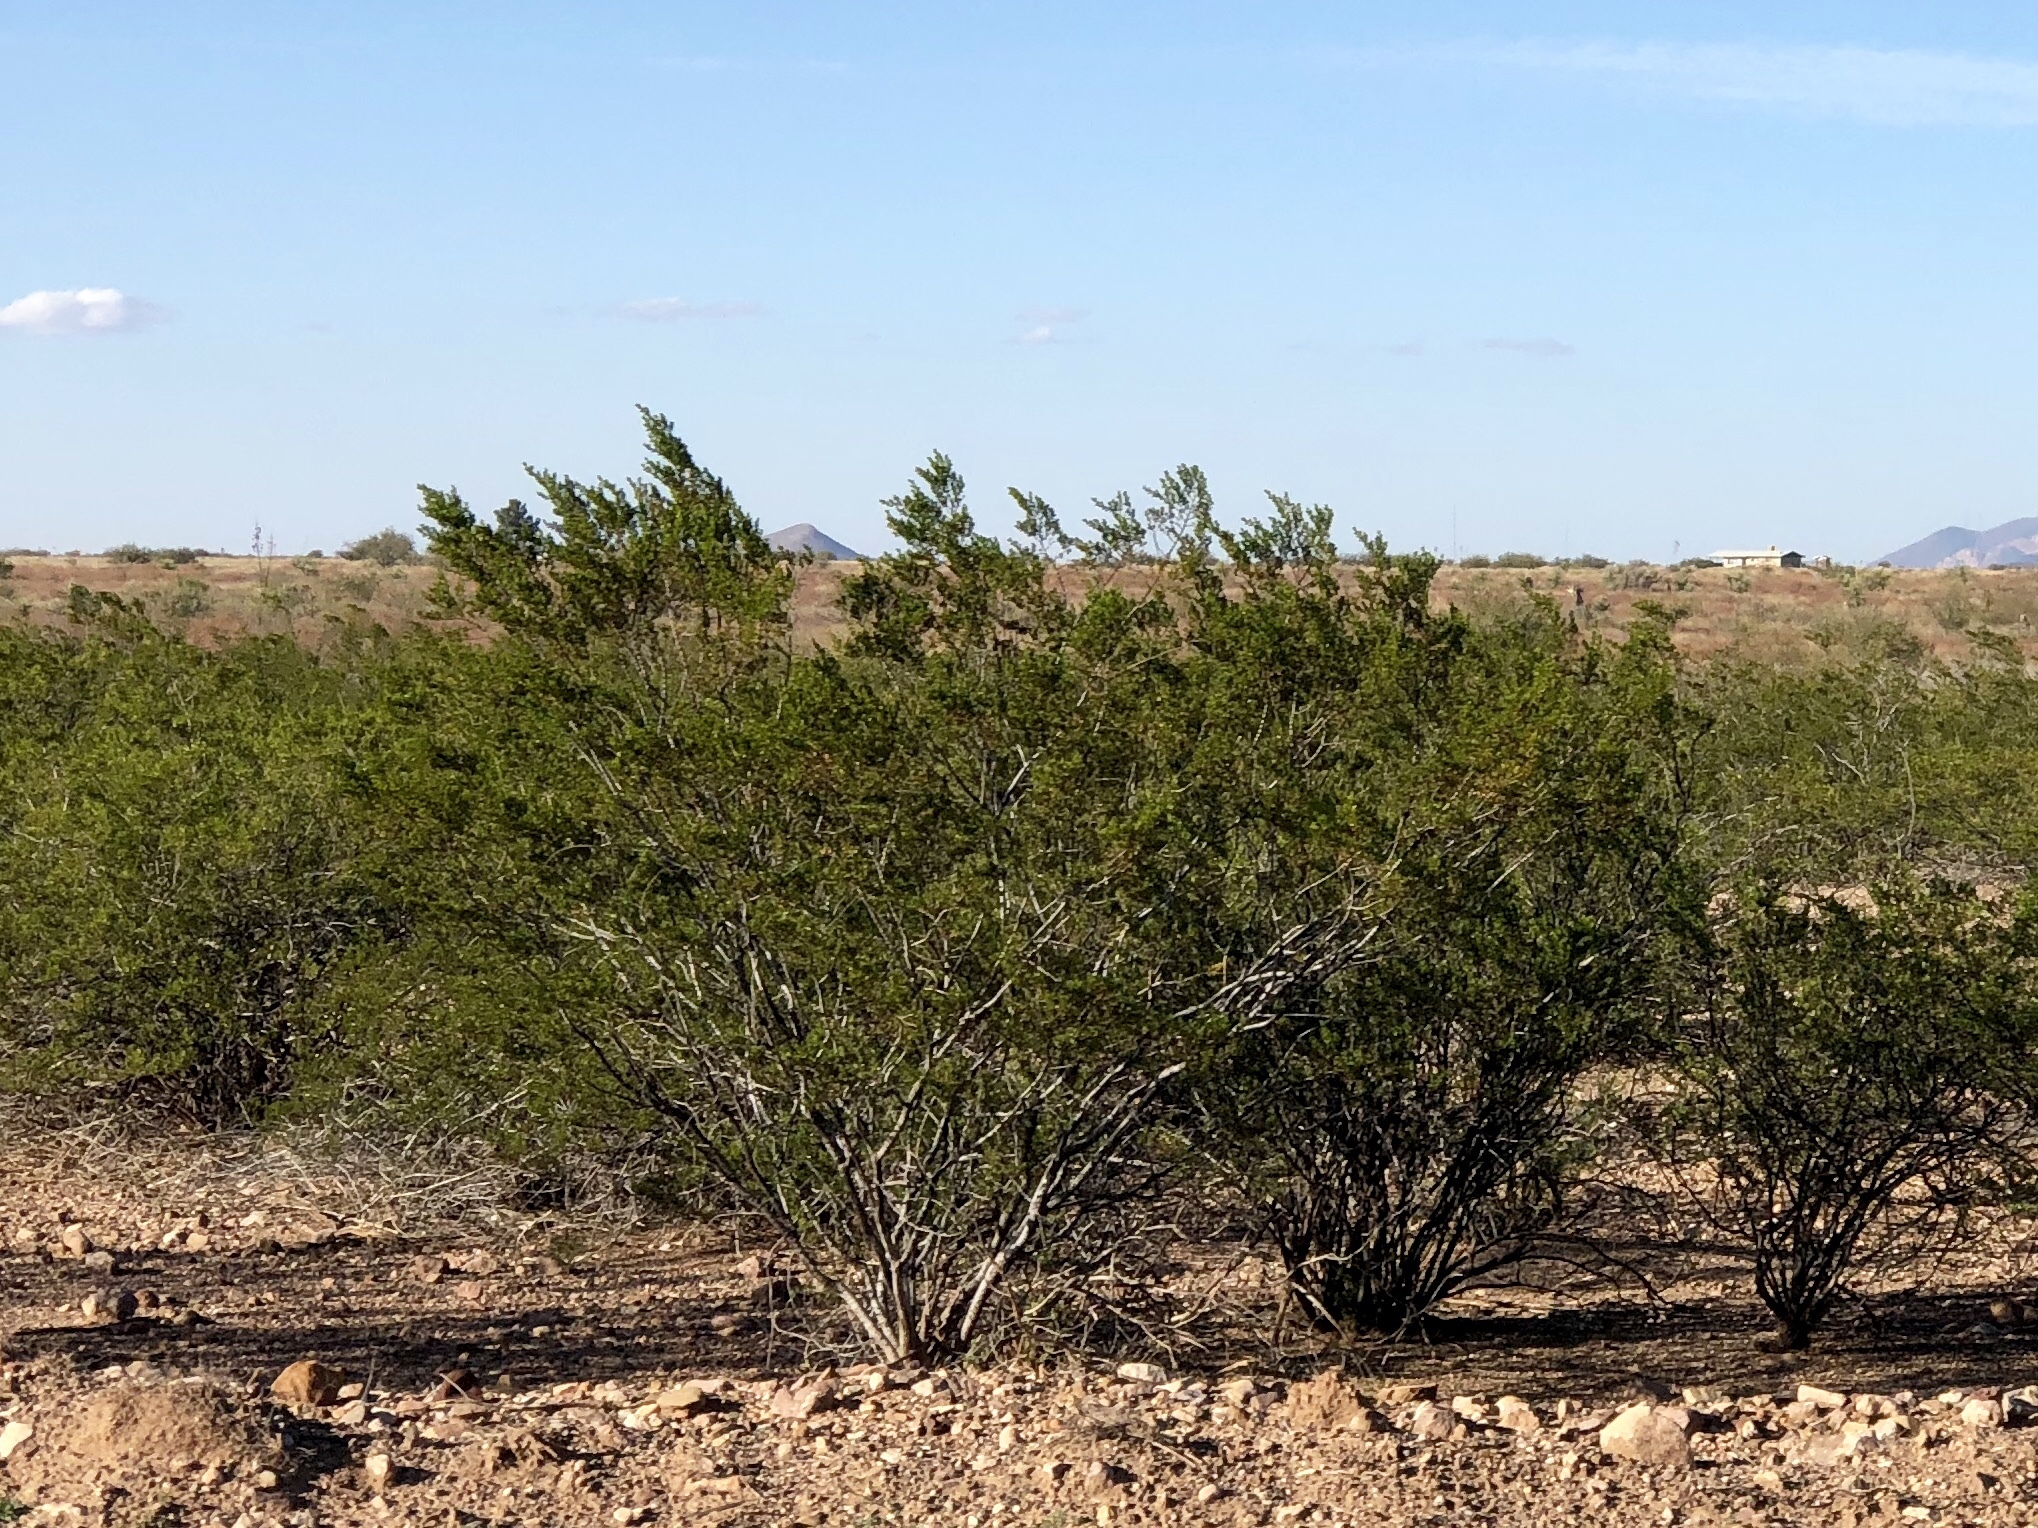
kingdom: Plantae
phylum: Tracheophyta
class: Magnoliopsida
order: Zygophyllales
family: Zygophyllaceae
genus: Larrea
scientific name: Larrea tridentata
